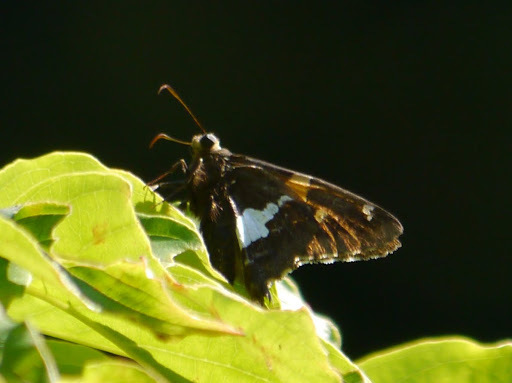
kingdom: Animalia
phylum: Arthropoda
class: Insecta
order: Lepidoptera
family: Hesperiidae
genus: Epargyreus
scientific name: Epargyreus clarus
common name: Silver-spotted skipper
